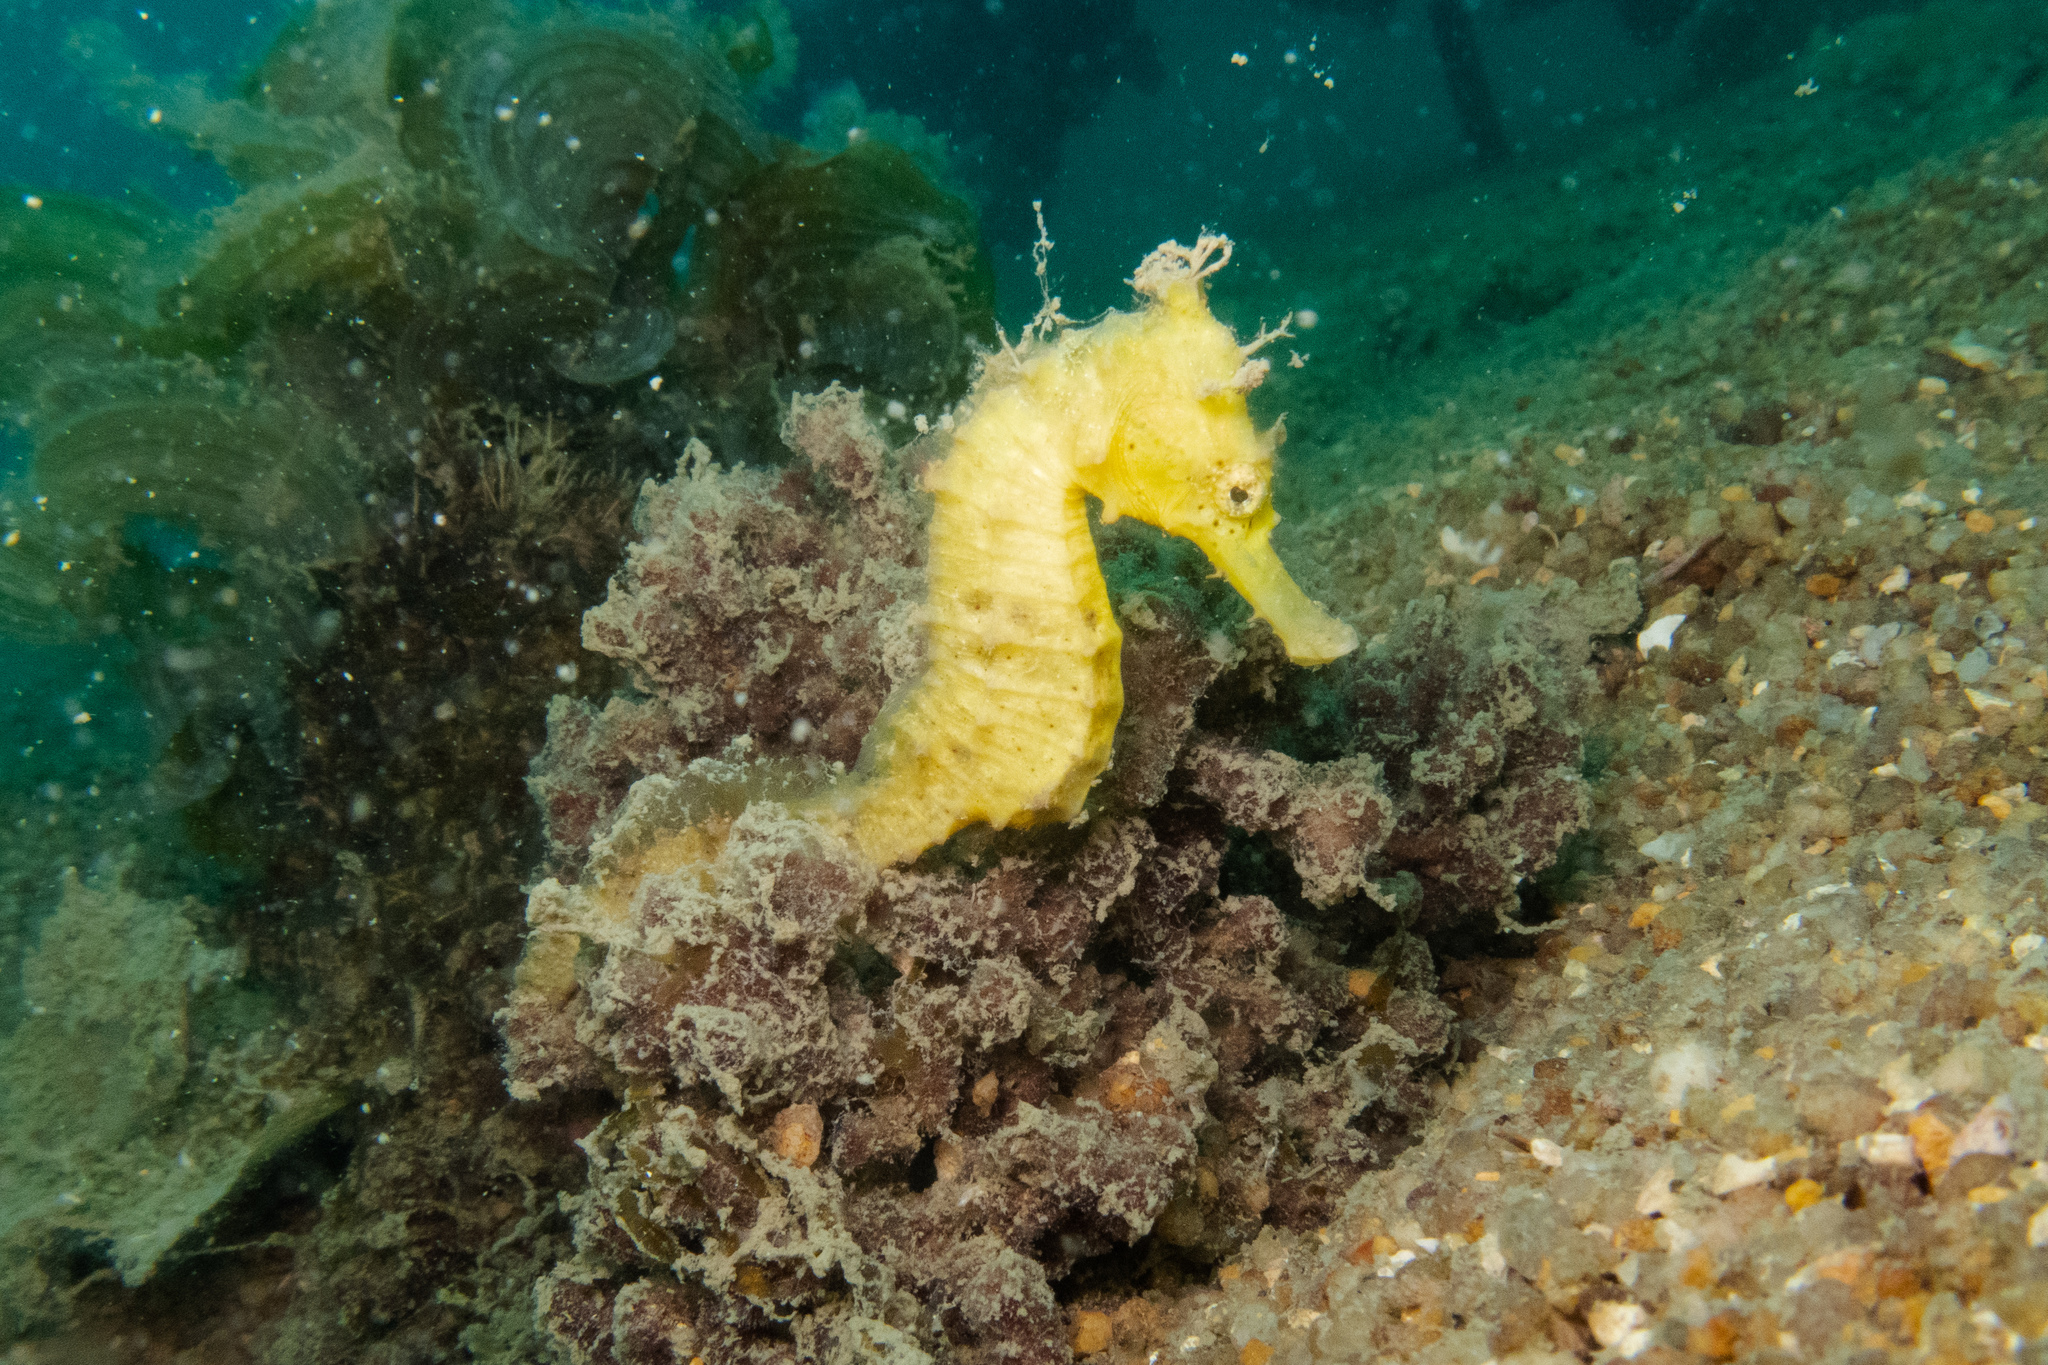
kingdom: Animalia
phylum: Chordata
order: Syngnathiformes
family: Syngnathidae
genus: Hippocampus
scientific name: Hippocampus kuda
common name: Spotted seahorse
